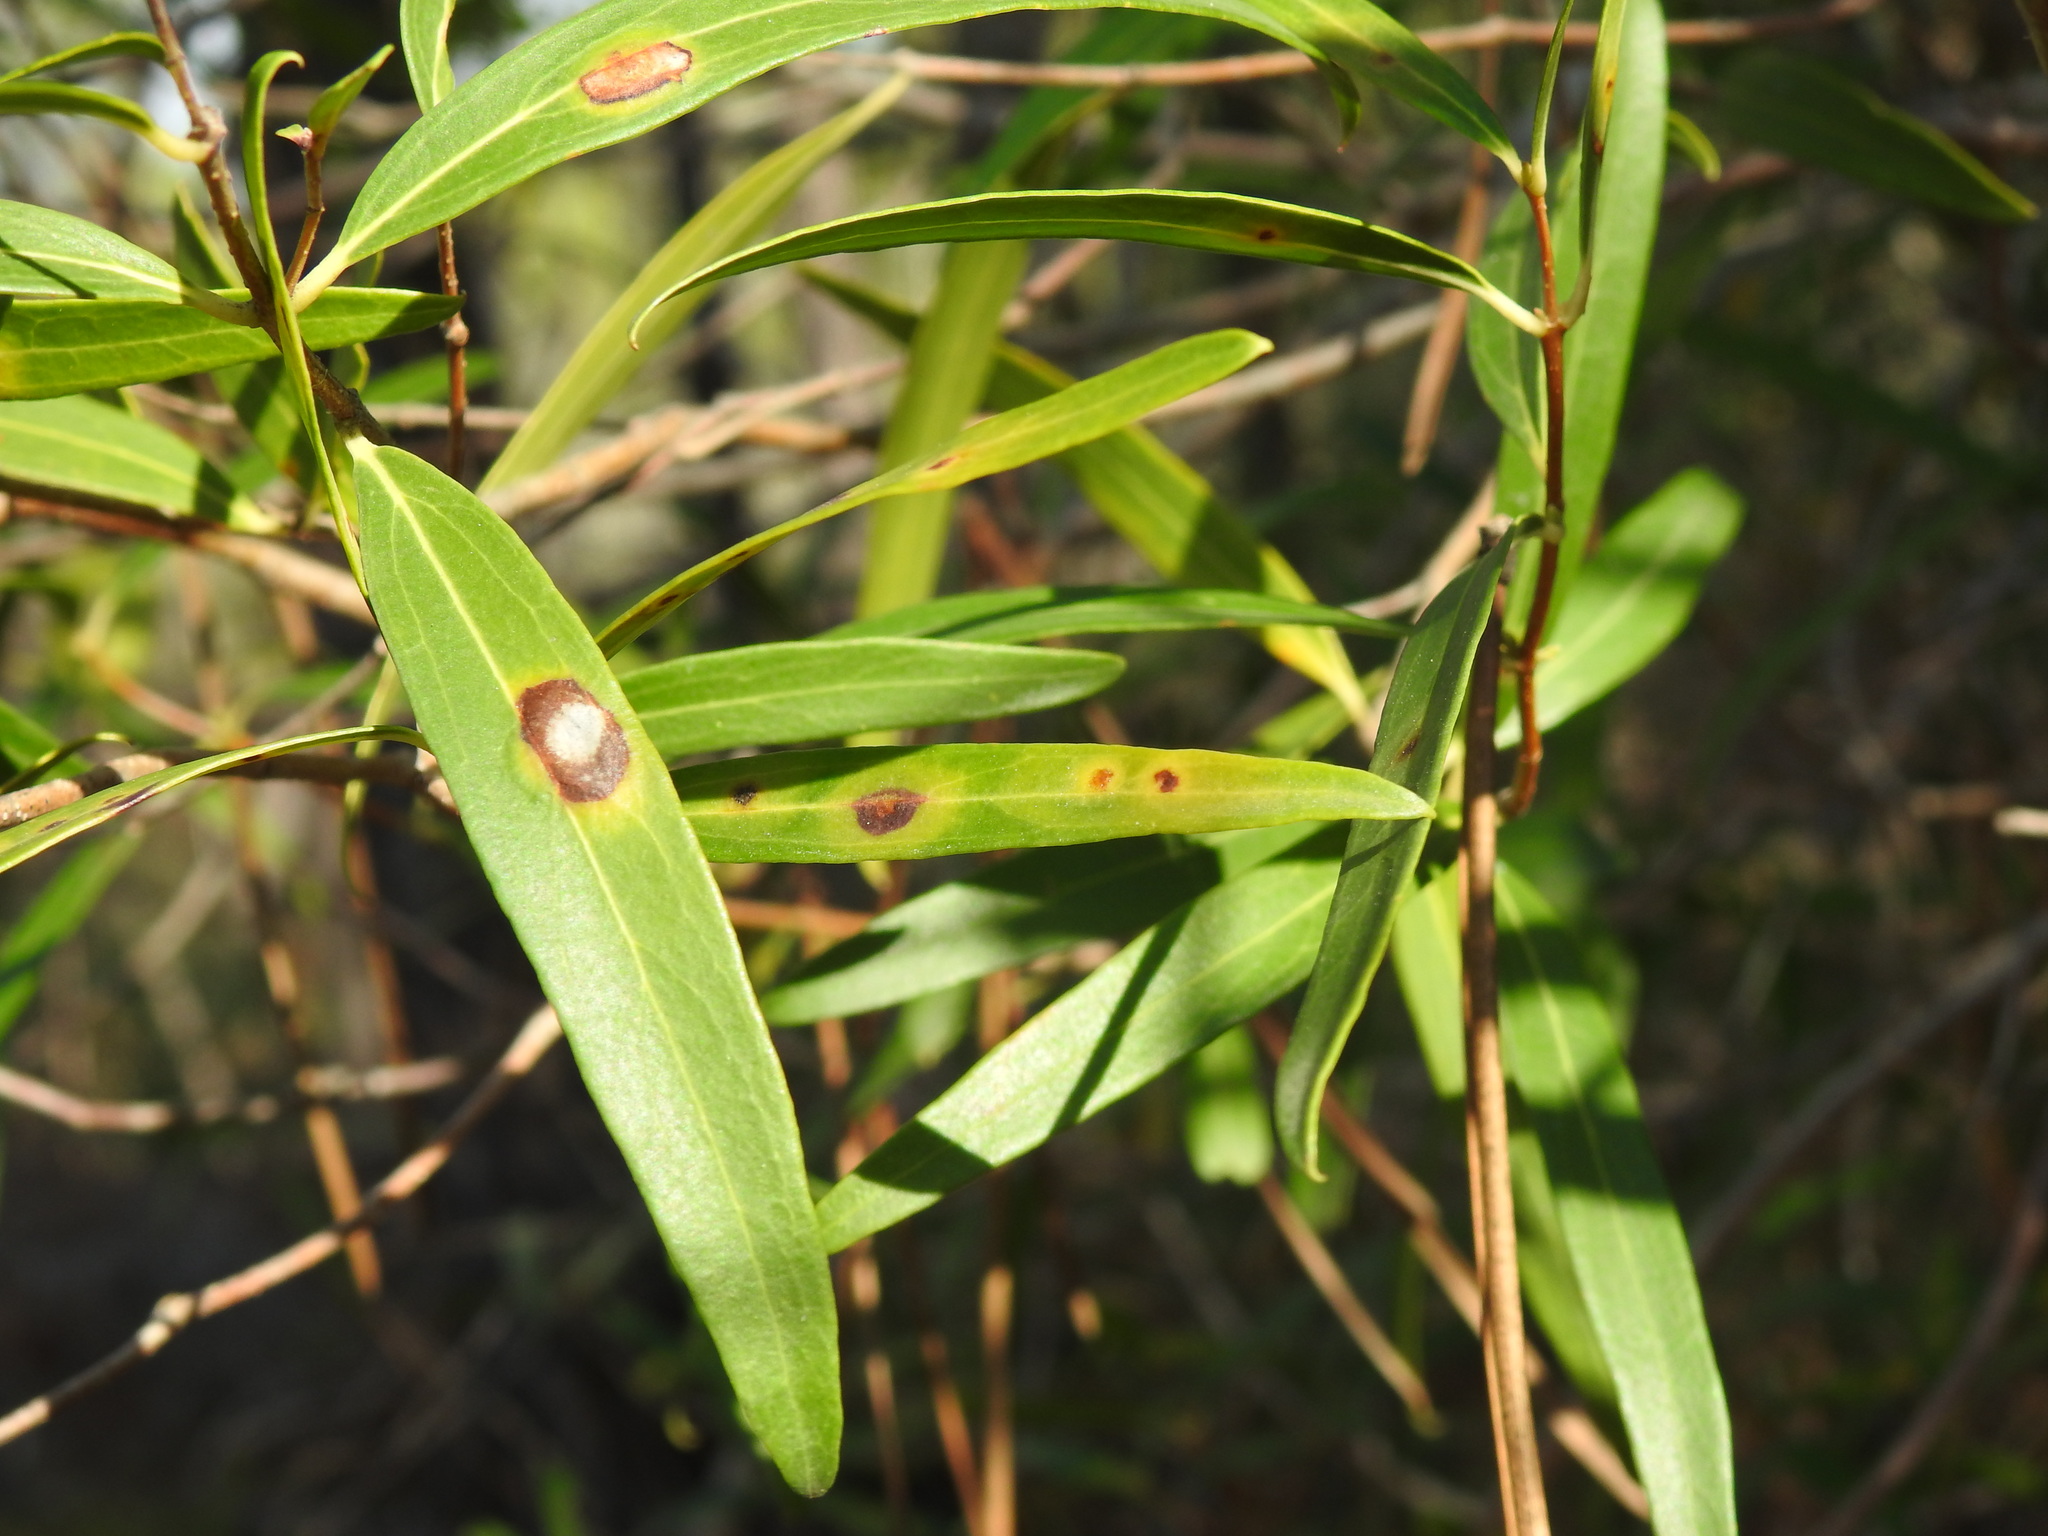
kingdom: Animalia
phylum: Arthropoda
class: Insecta
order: Diptera
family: Cecidomyiidae
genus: Braueriella
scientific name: Braueriella phillyreae
